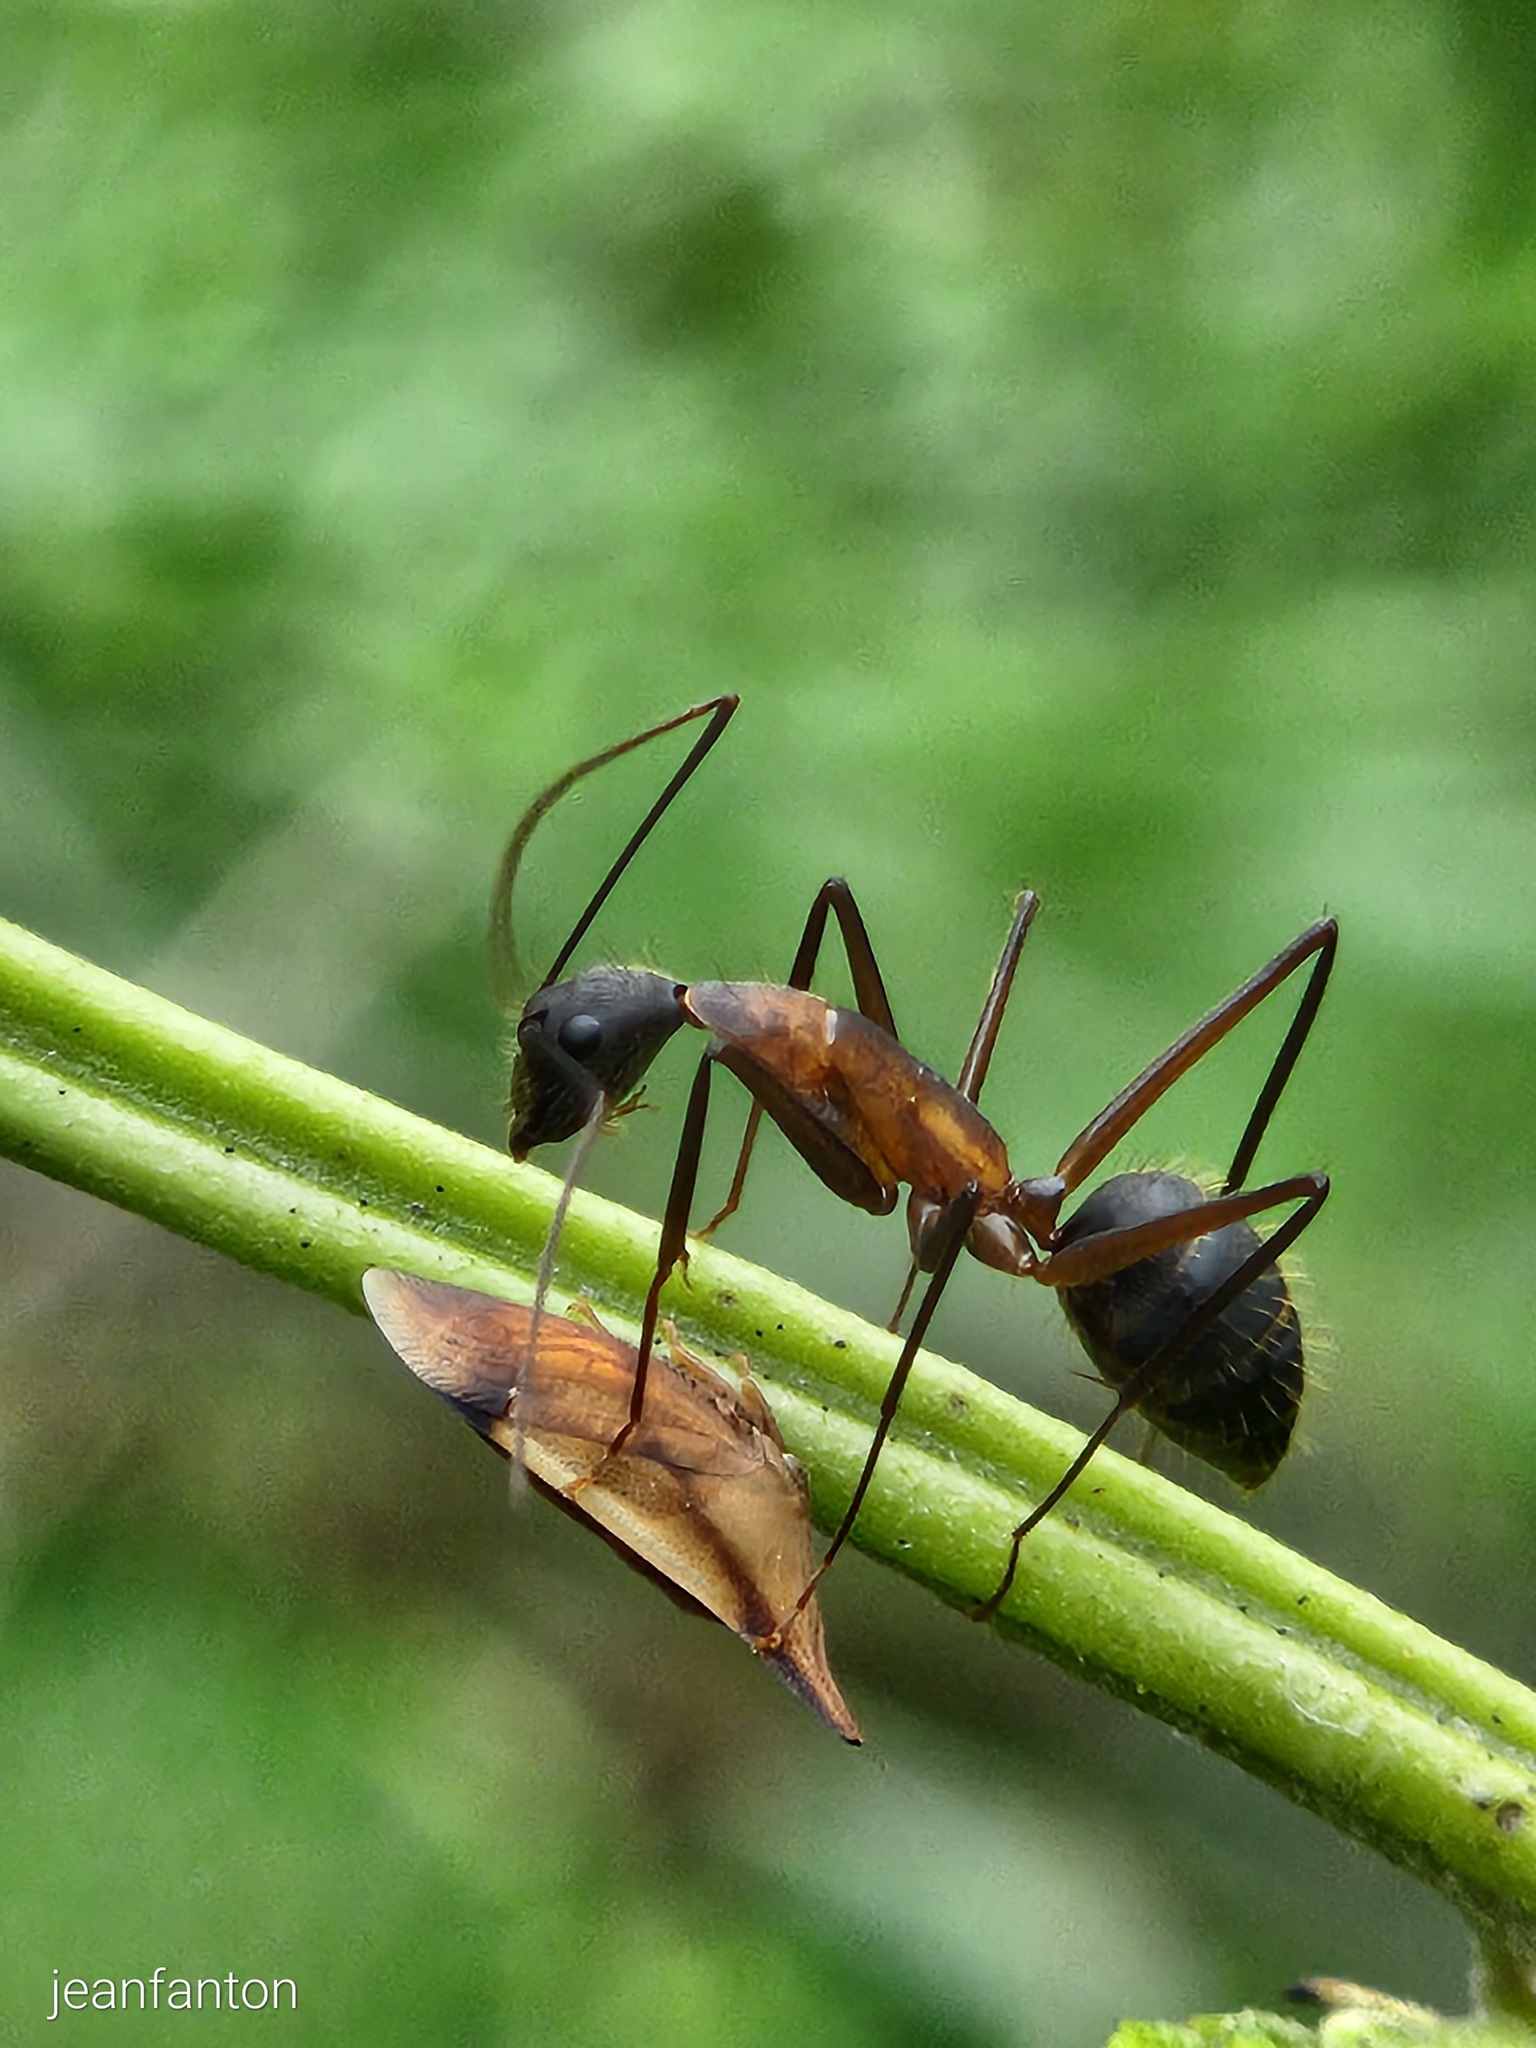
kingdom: Animalia
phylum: Arthropoda
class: Insecta
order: Hemiptera
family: Membracidae
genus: Enchenopa
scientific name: Enchenopa concolor
